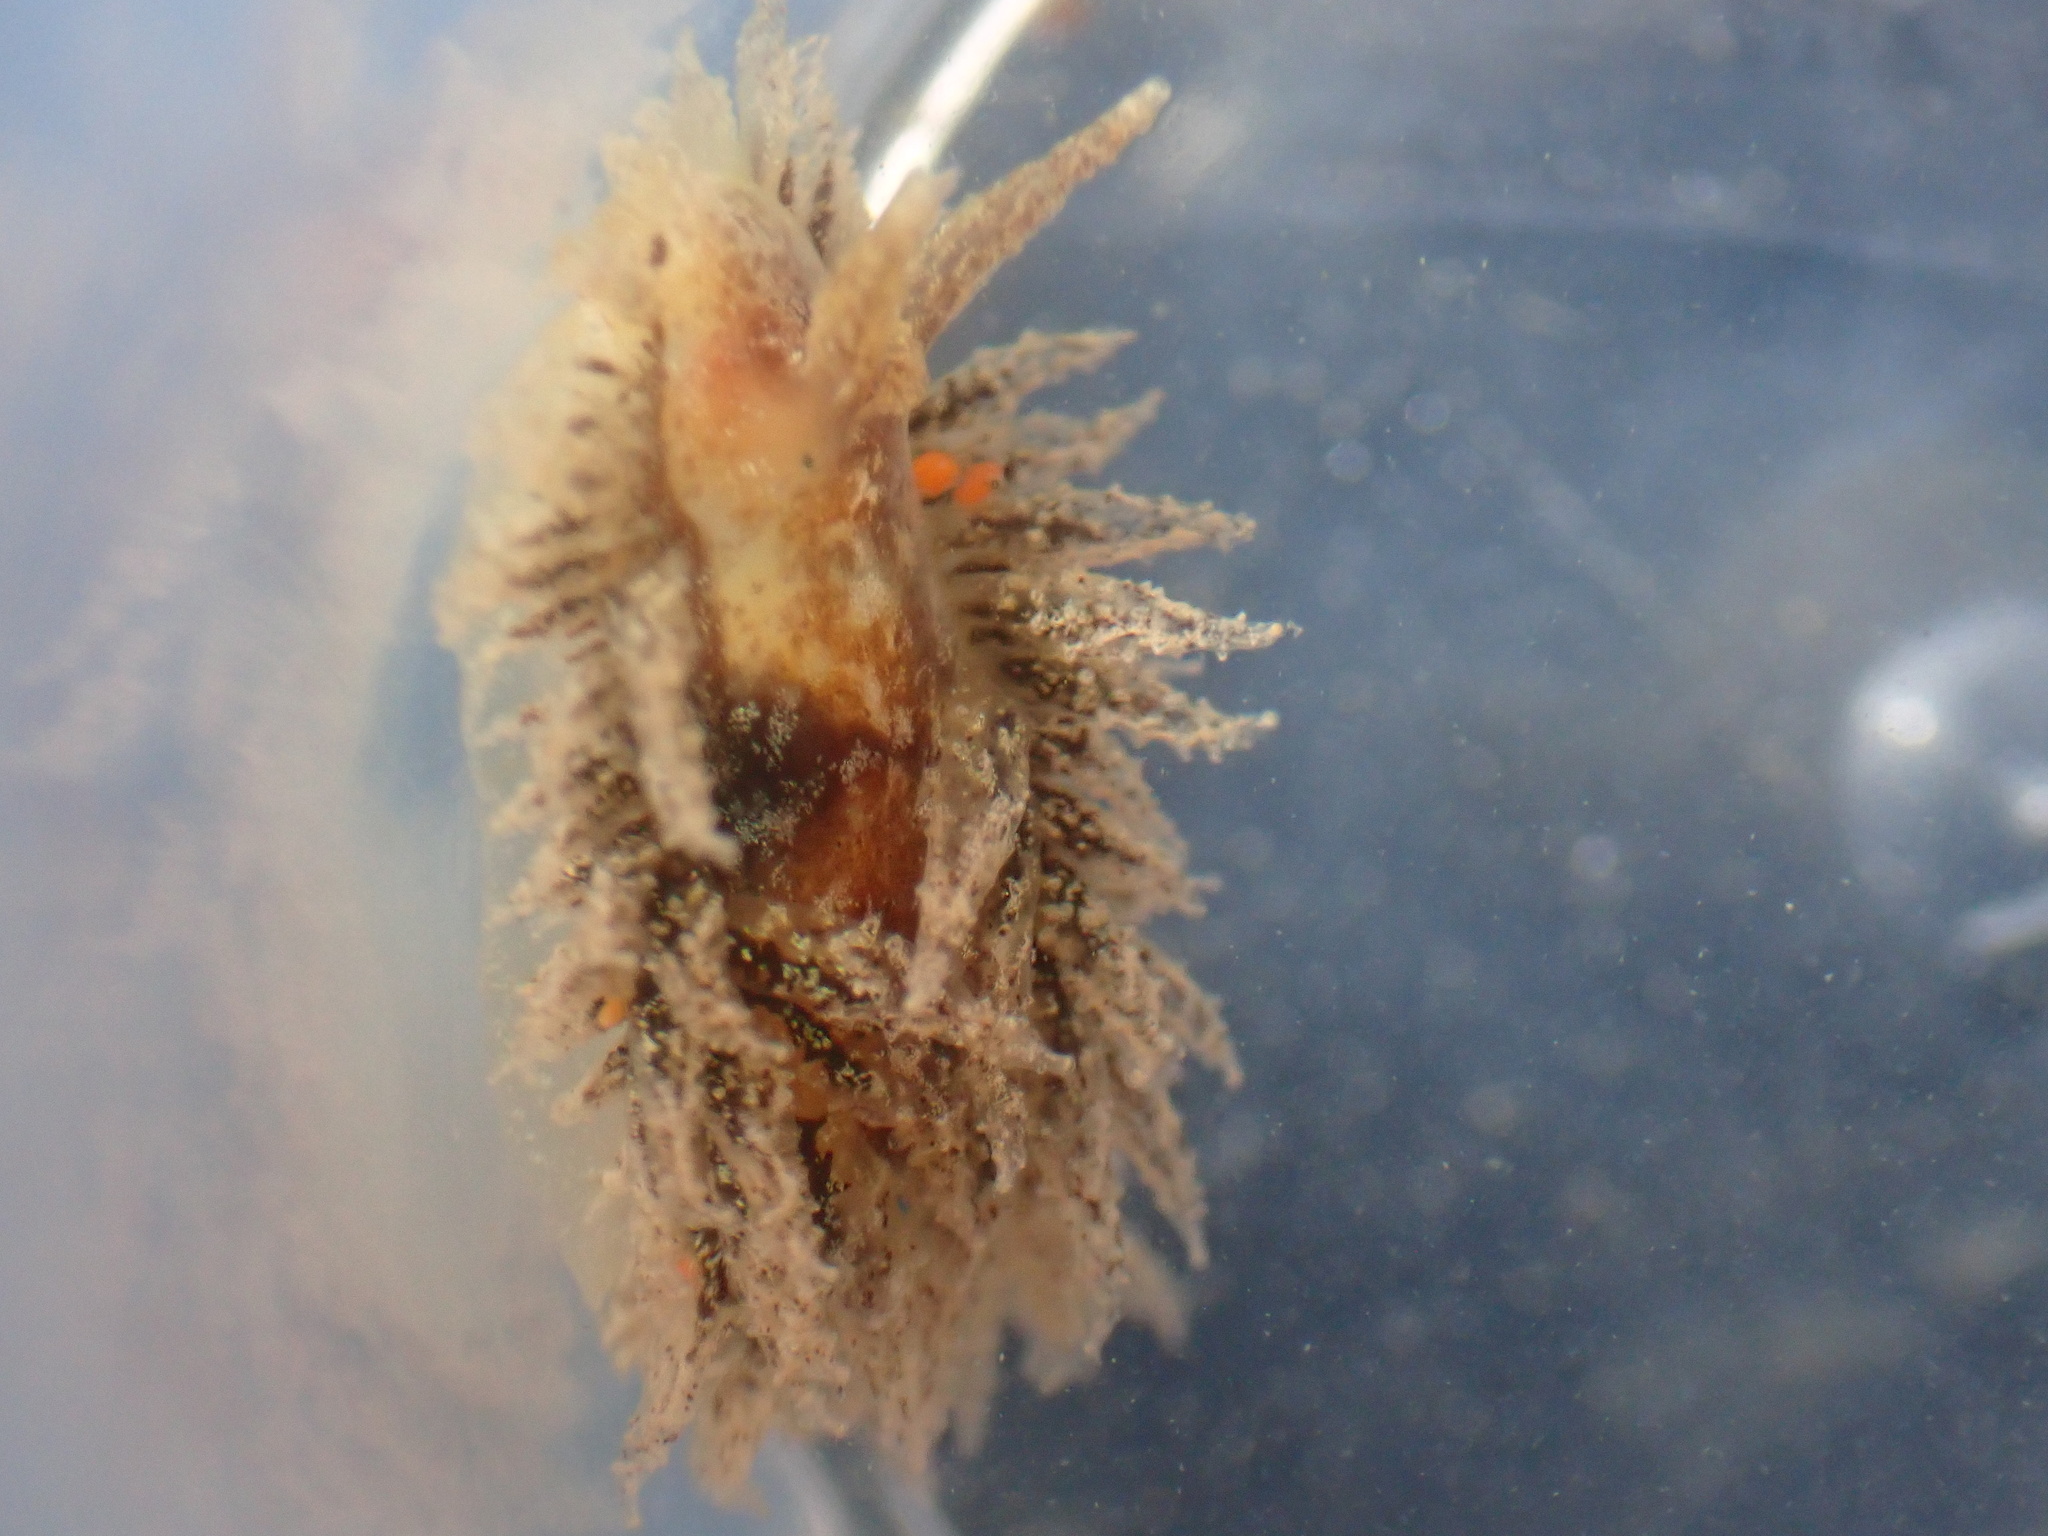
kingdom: Animalia
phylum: Mollusca
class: Gastropoda
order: Nudibranchia
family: Janolidae
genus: Janolus
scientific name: Janolus hyalinus
